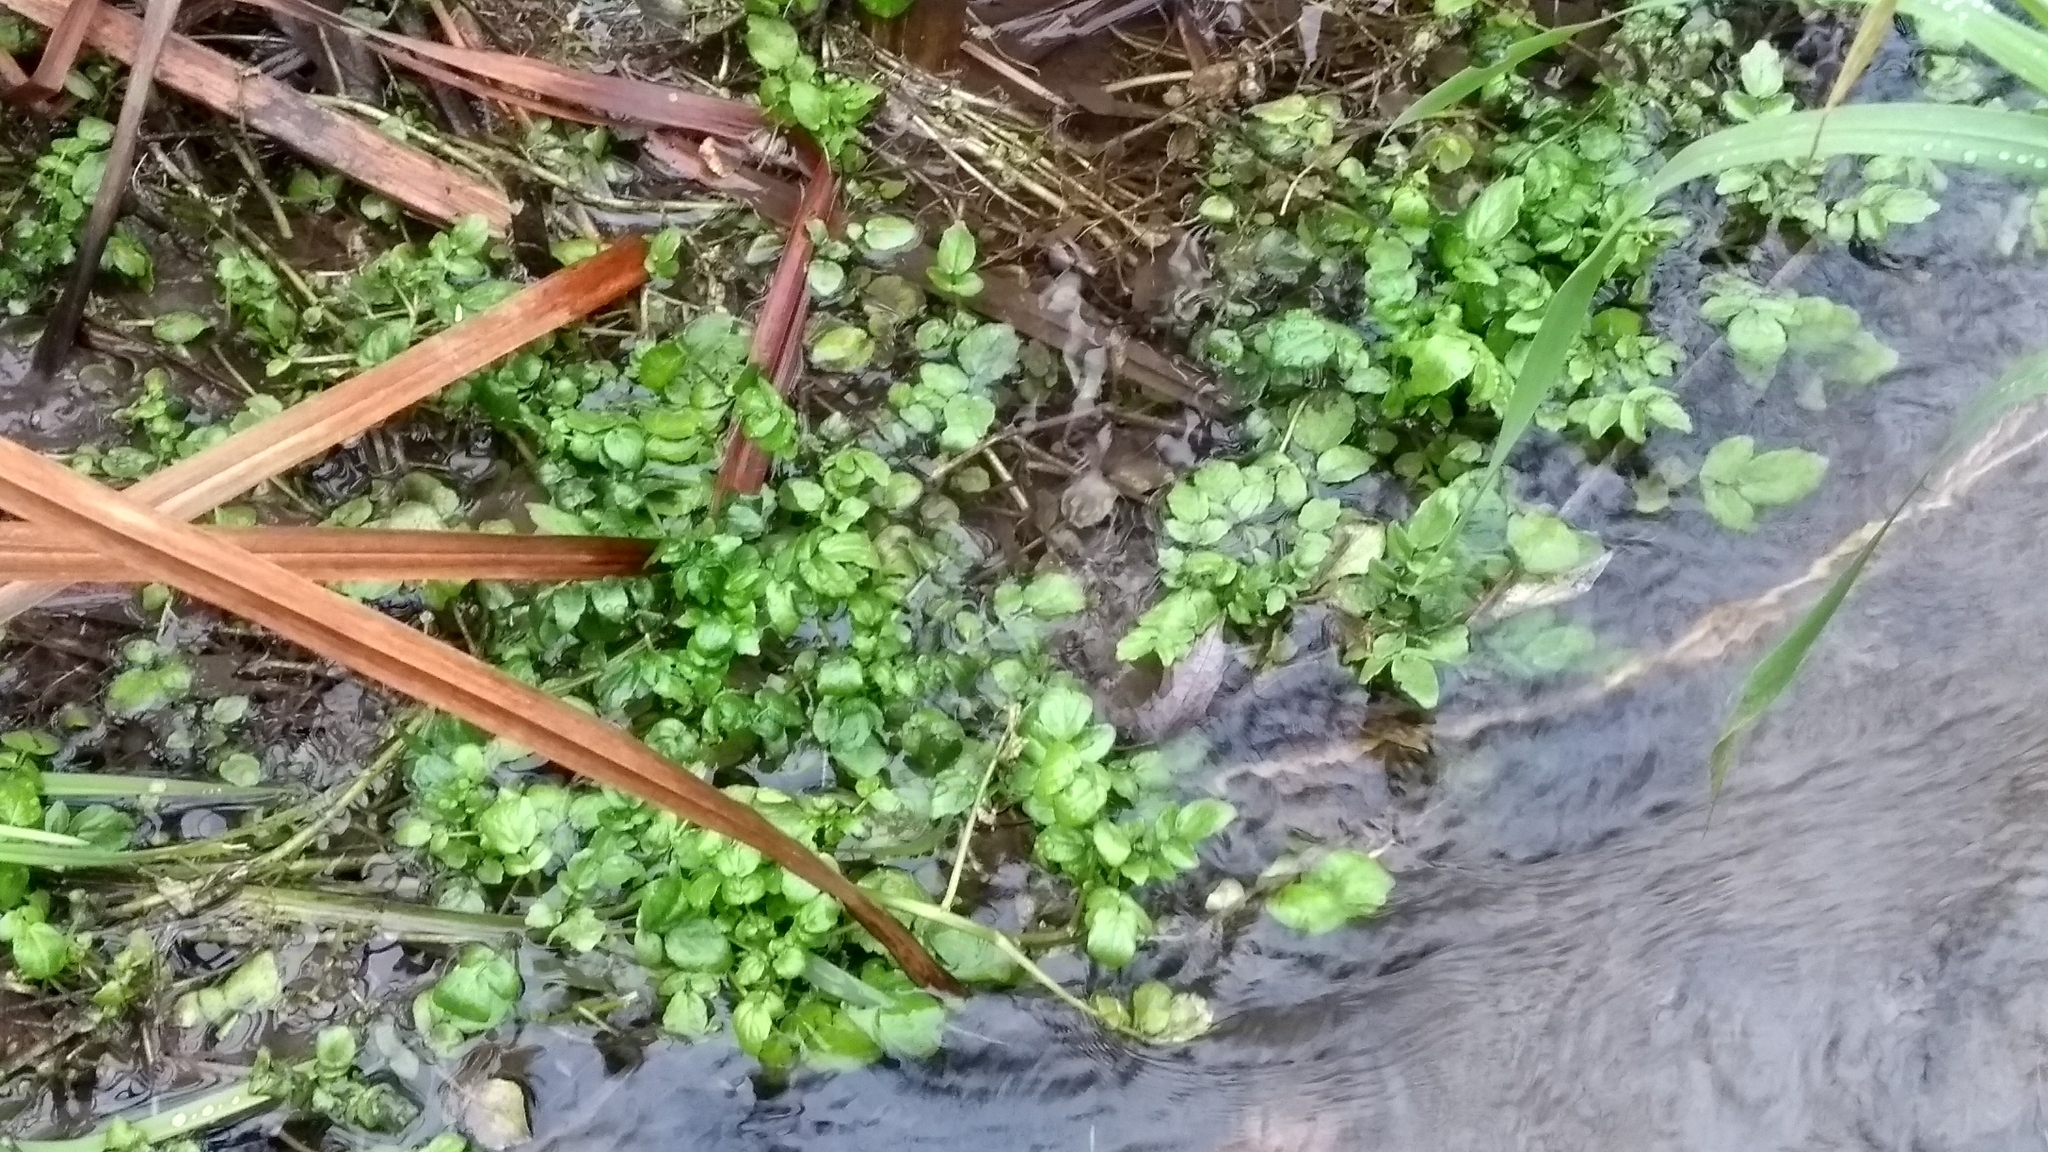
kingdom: Plantae
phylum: Tracheophyta
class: Magnoliopsida
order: Brassicales
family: Brassicaceae
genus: Nasturtium
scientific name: Nasturtium officinale
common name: Watercress
